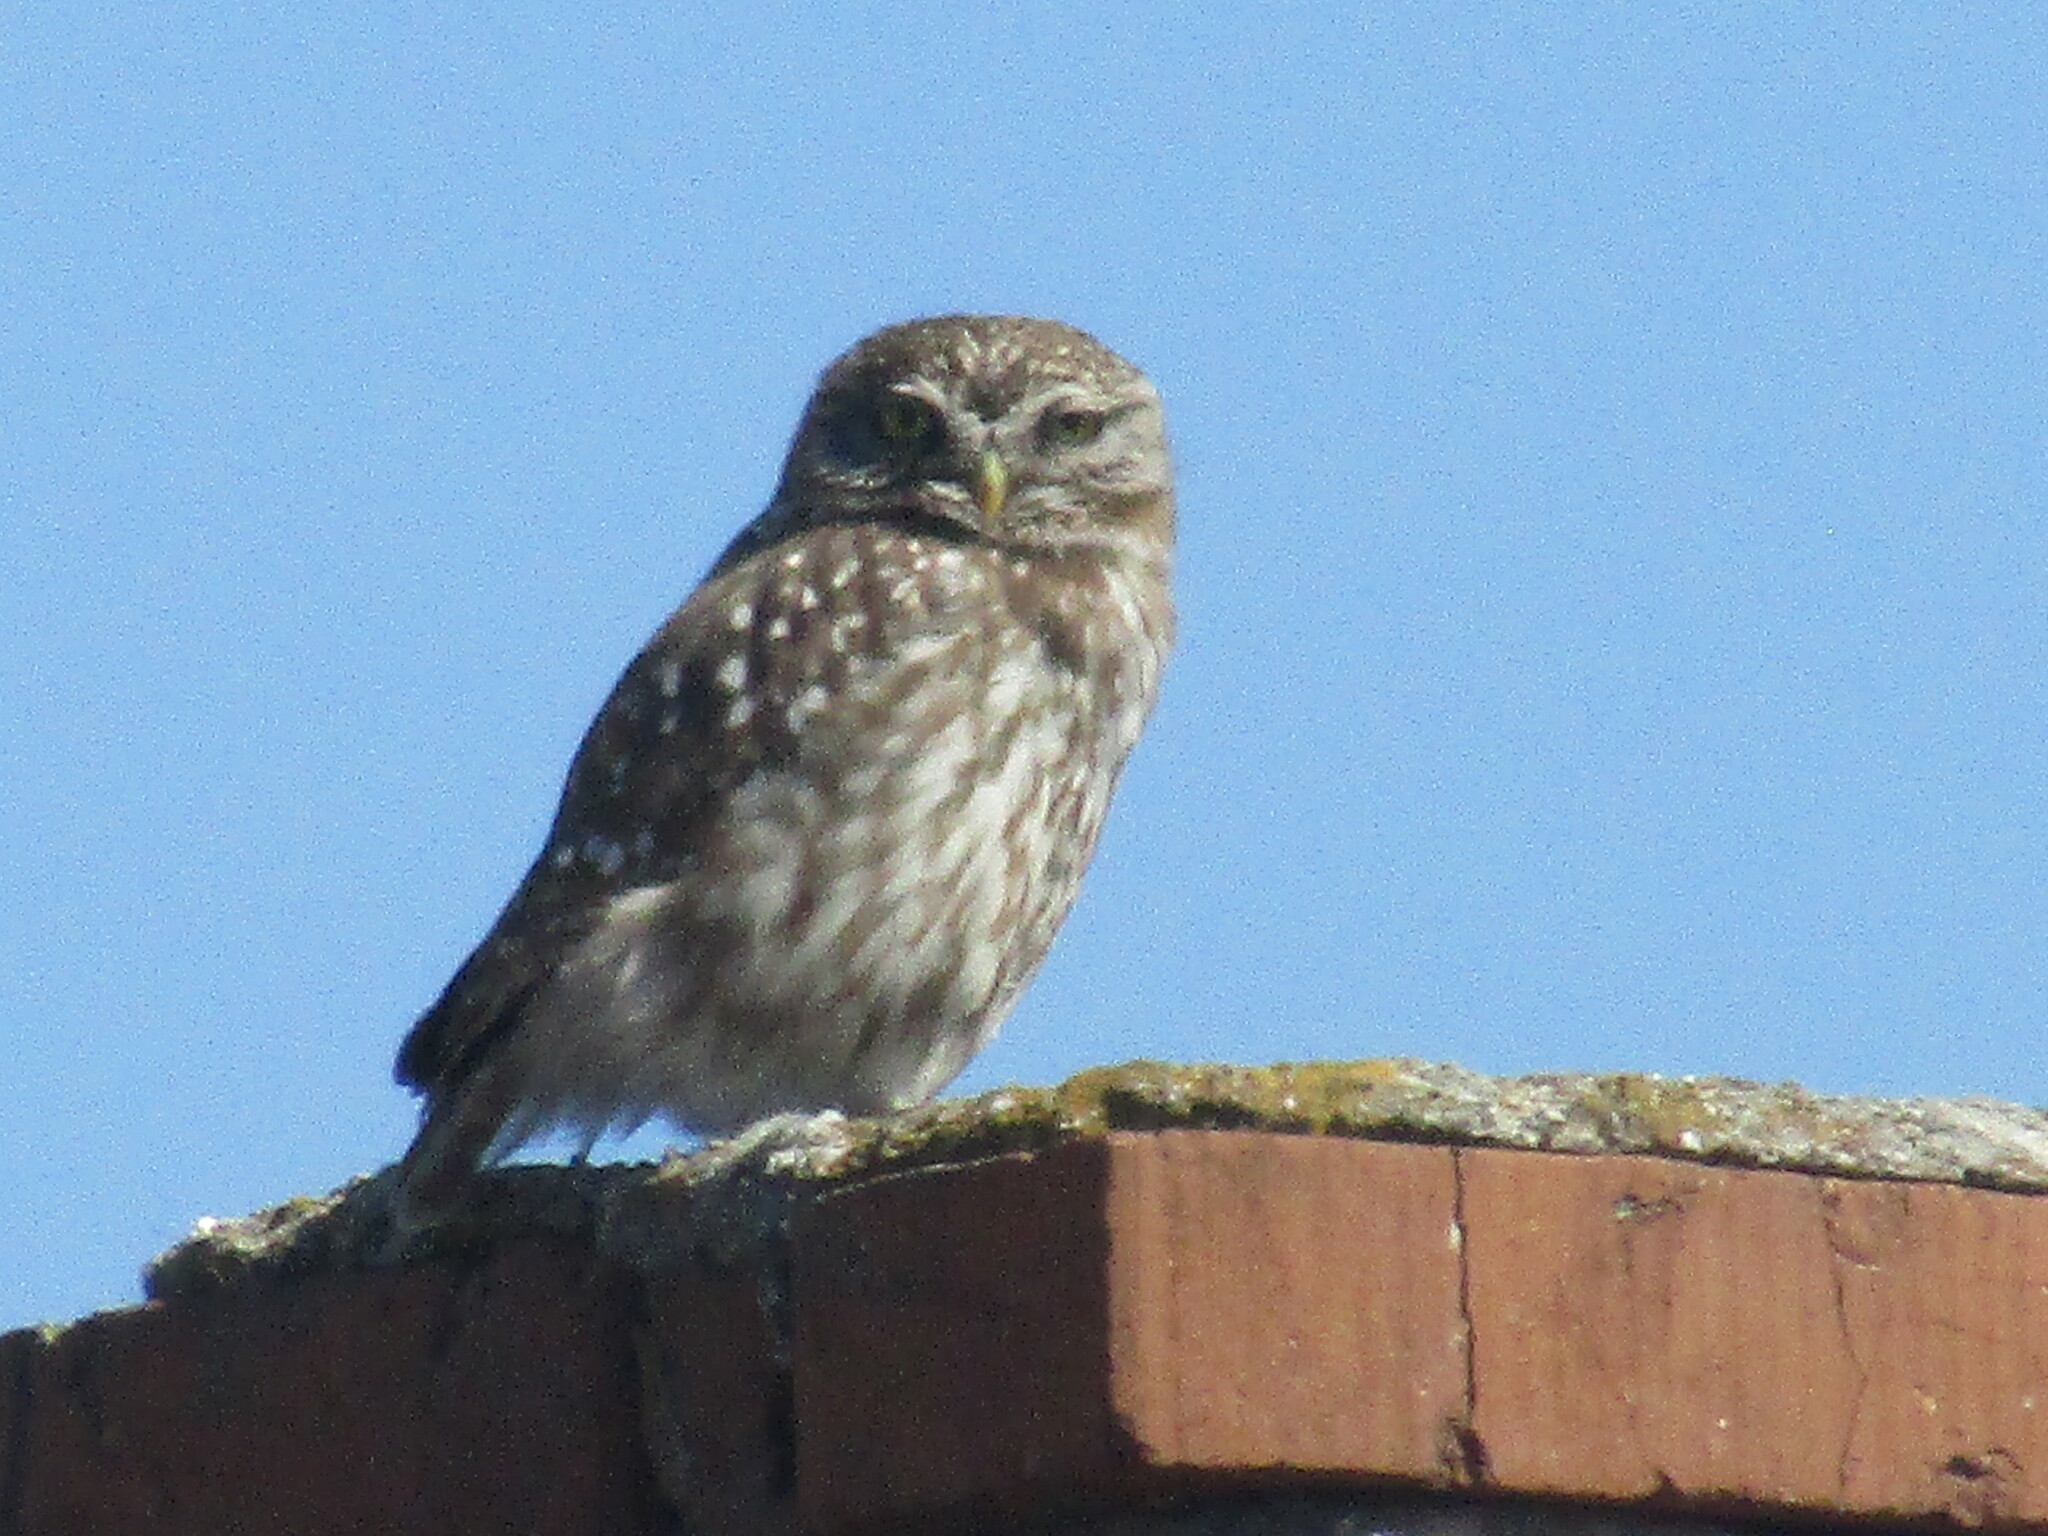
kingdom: Animalia
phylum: Chordata
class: Aves
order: Strigiformes
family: Strigidae
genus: Athene
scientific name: Athene noctua
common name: Little owl
